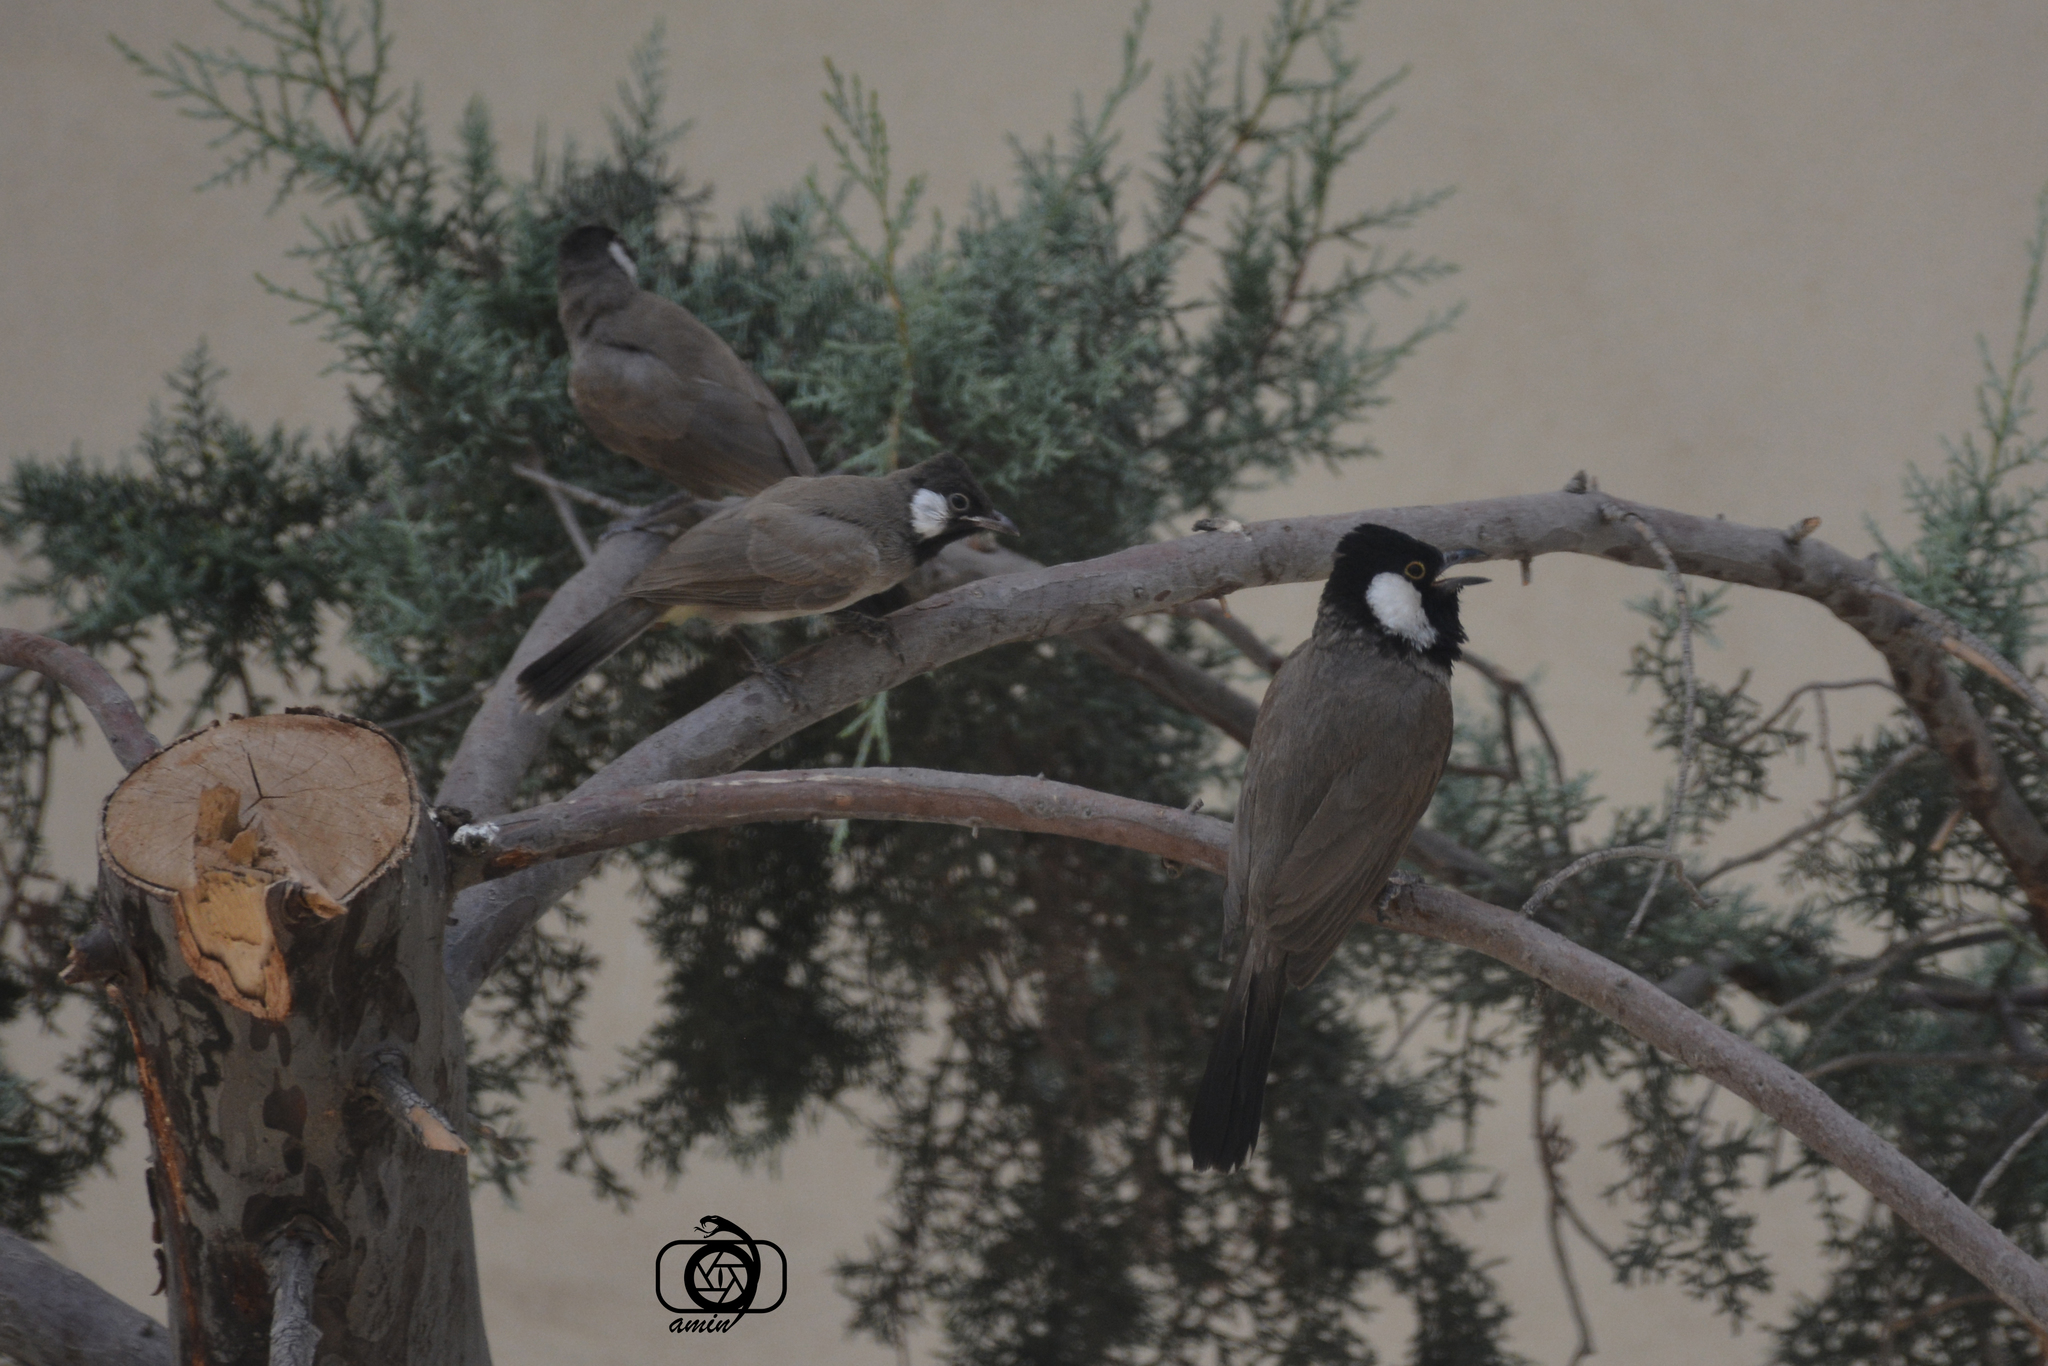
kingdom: Animalia
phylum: Chordata
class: Aves
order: Passeriformes
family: Pycnonotidae
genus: Pycnonotus
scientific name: Pycnonotus leucotis
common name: White-eared bulbul
